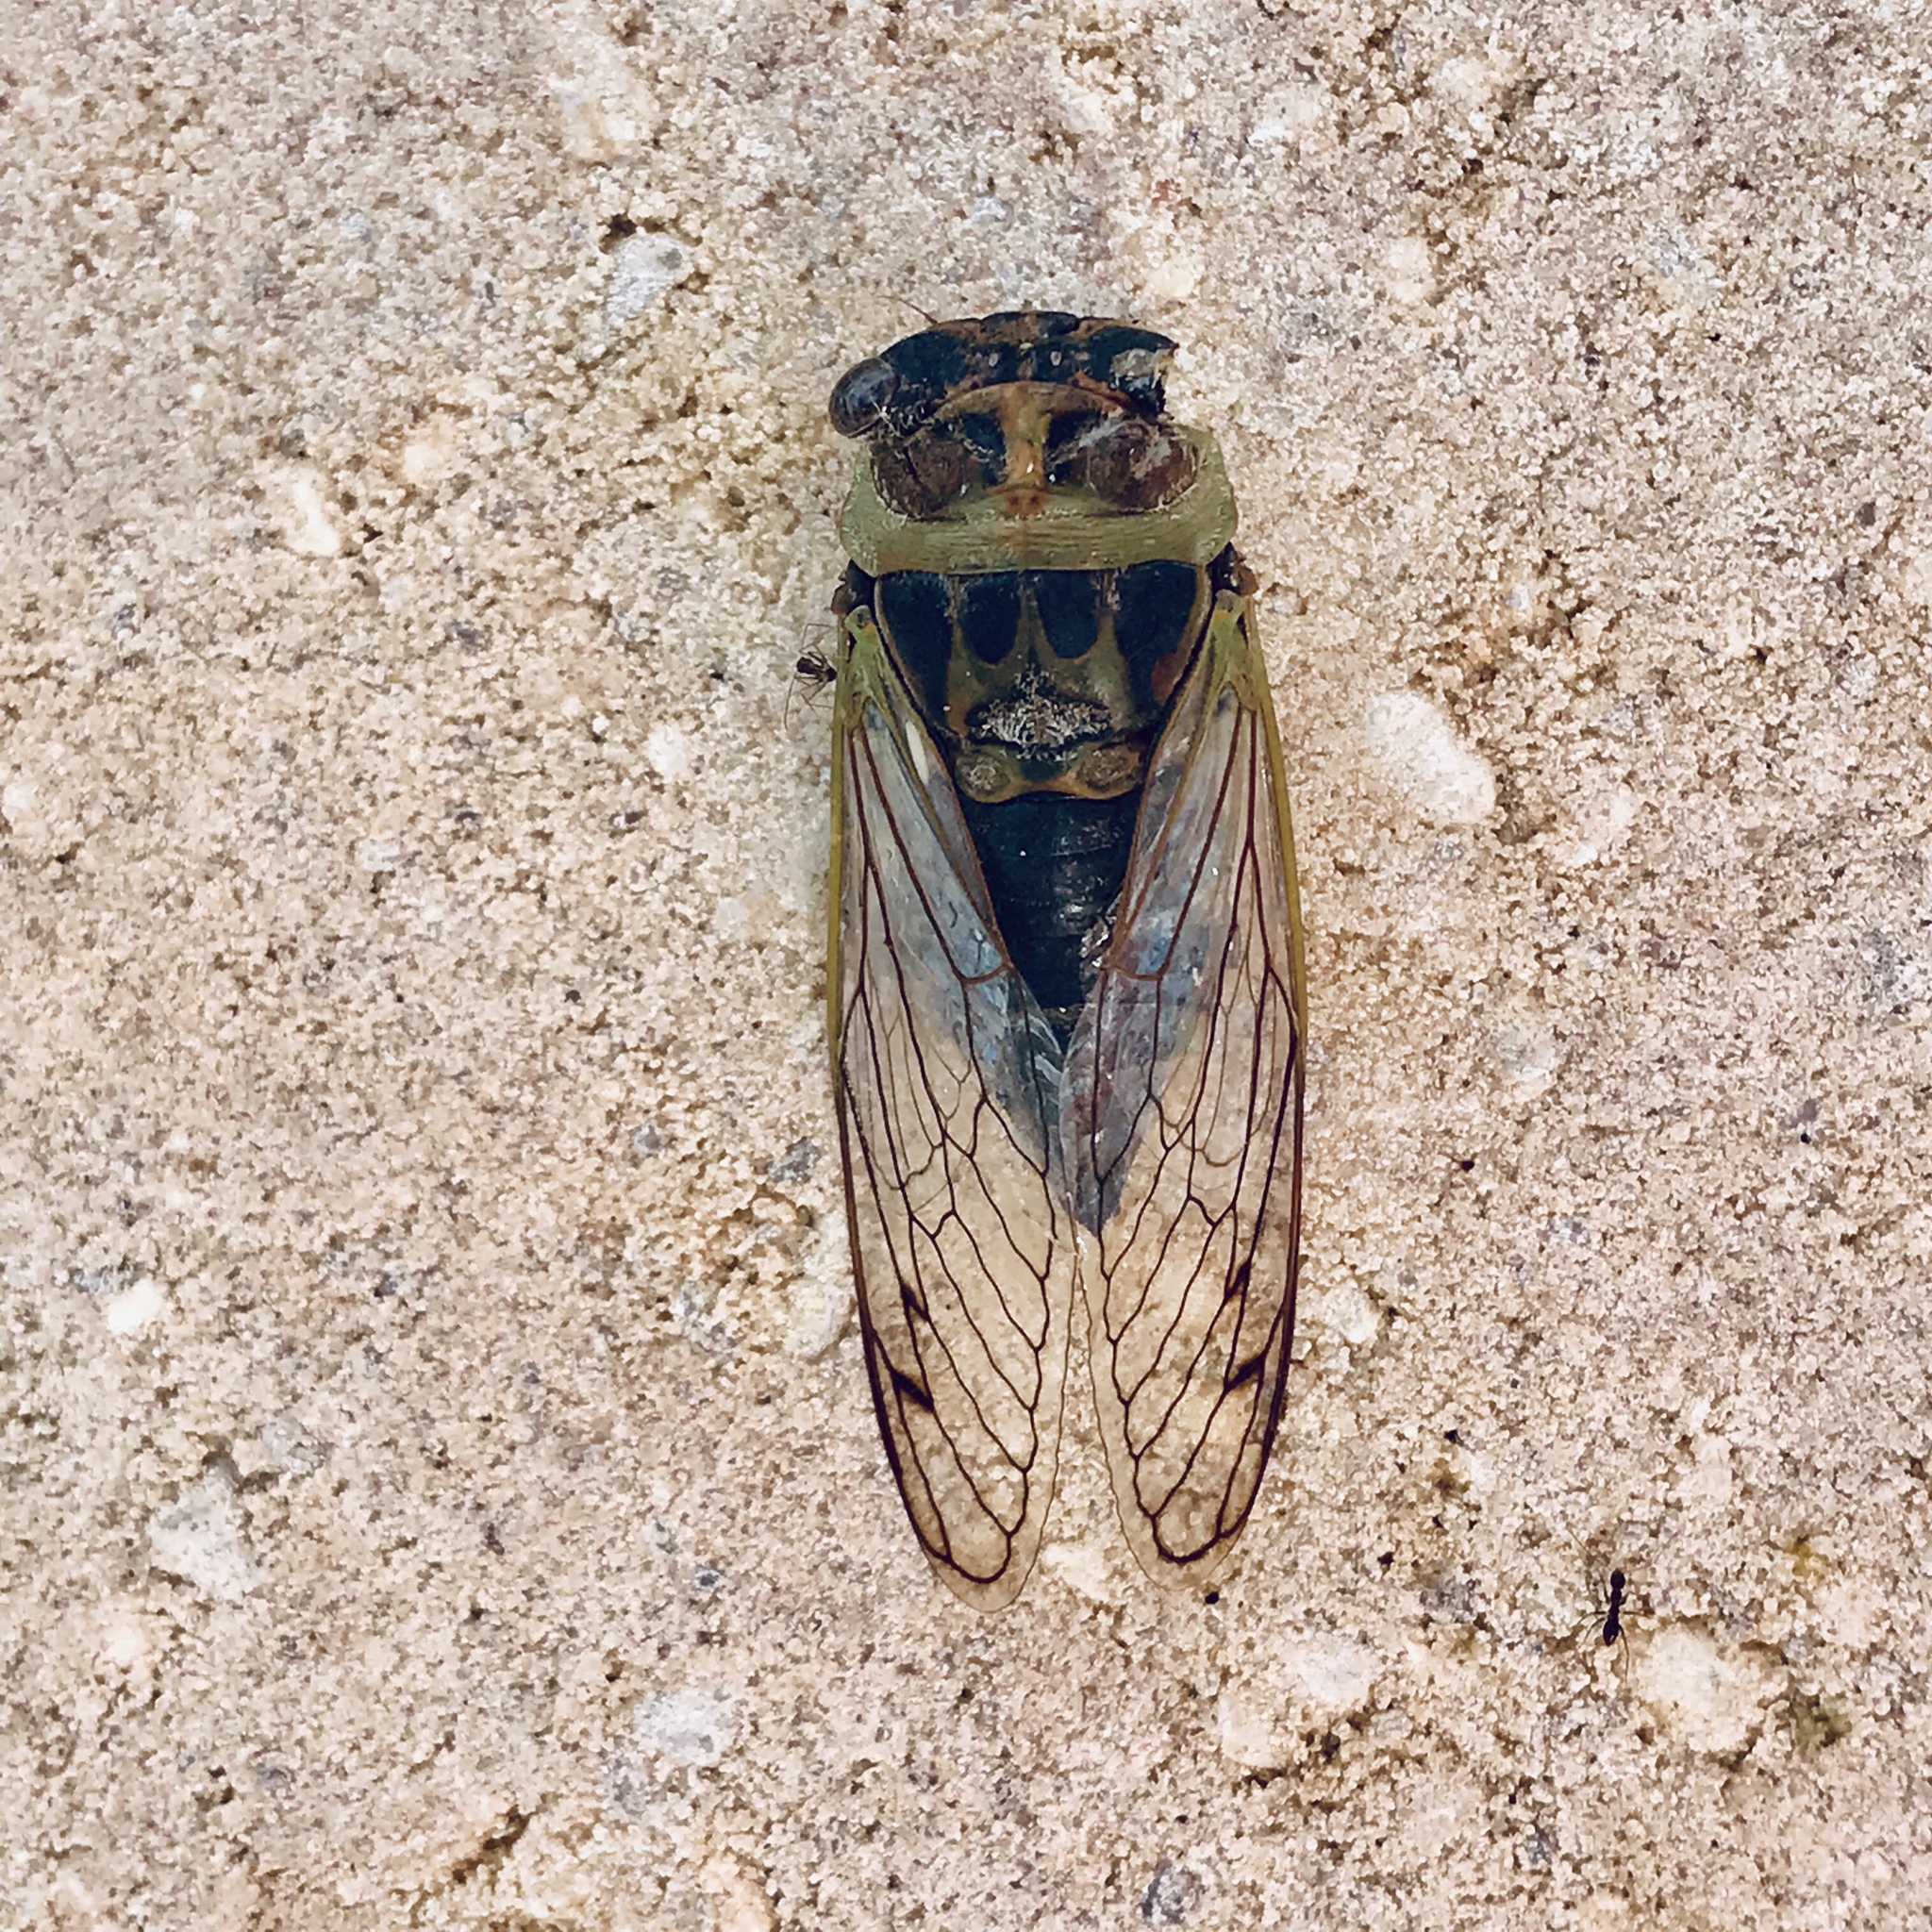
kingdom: Animalia
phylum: Arthropoda
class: Insecta
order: Hemiptera
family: Cicadidae
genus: Neotibicen
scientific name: Neotibicen davisi
